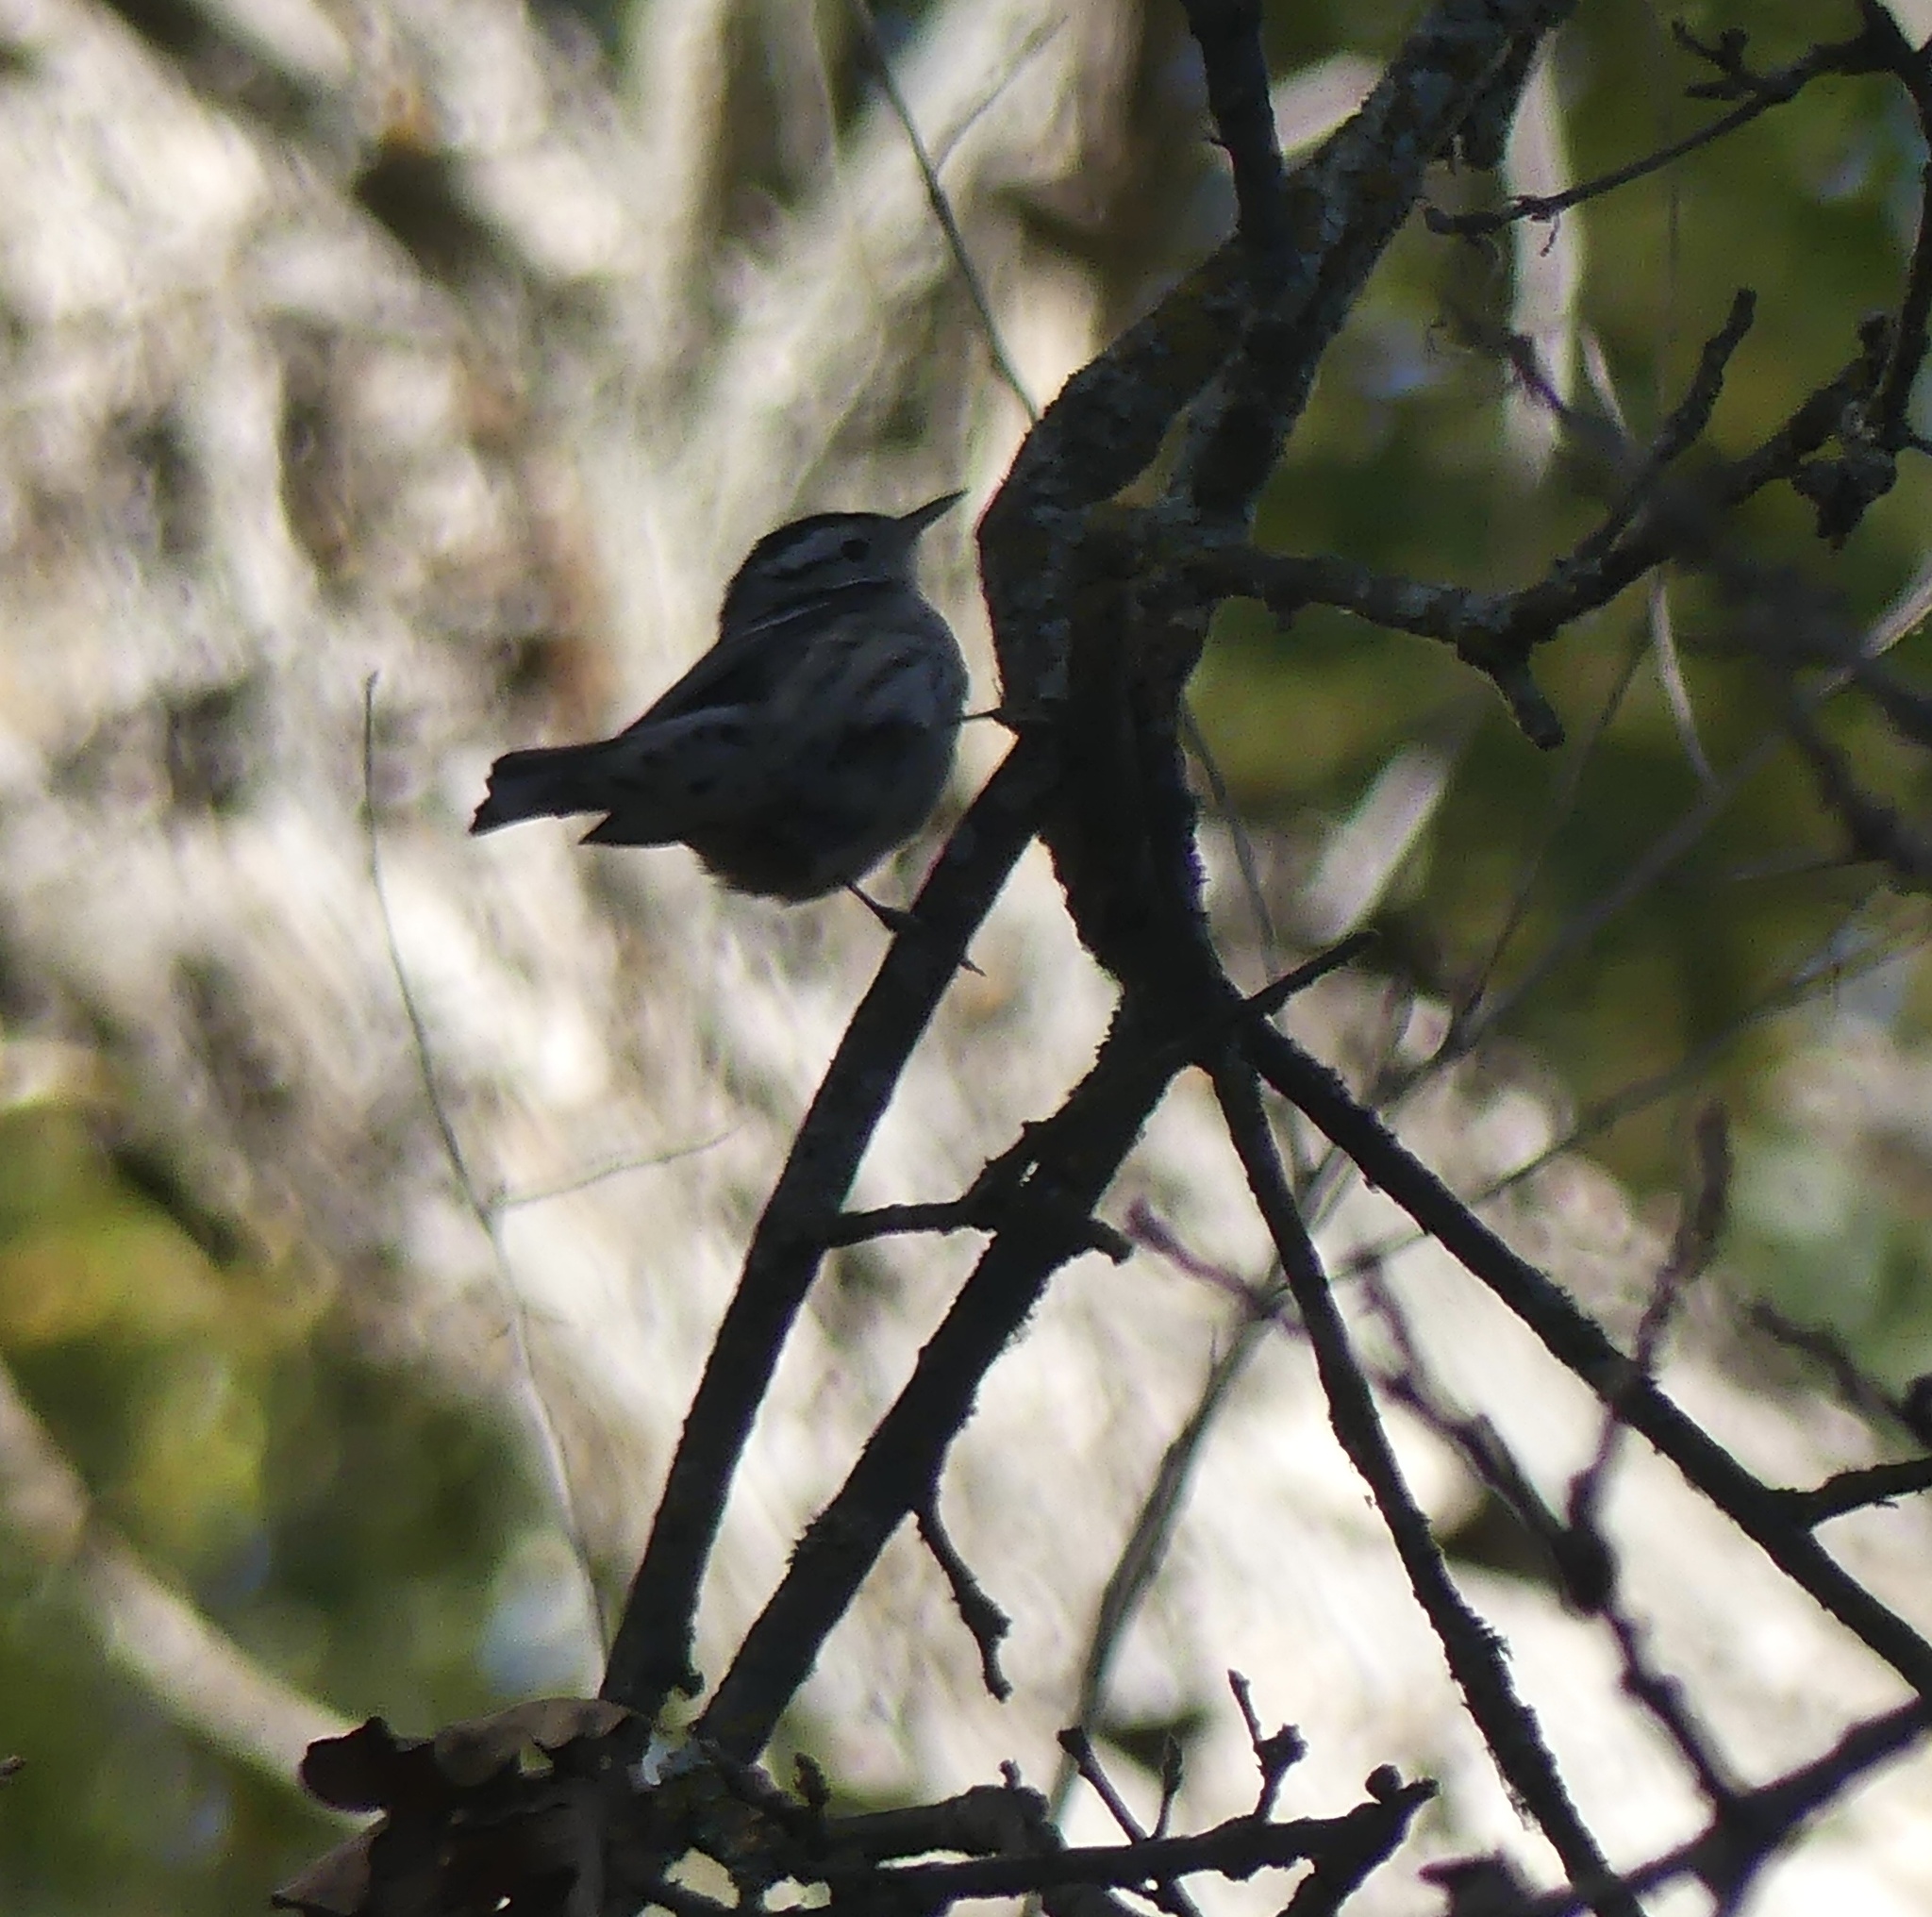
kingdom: Animalia
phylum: Chordata
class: Aves
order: Passeriformes
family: Parulidae
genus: Mniotilta
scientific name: Mniotilta varia
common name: Black-and-white warbler
